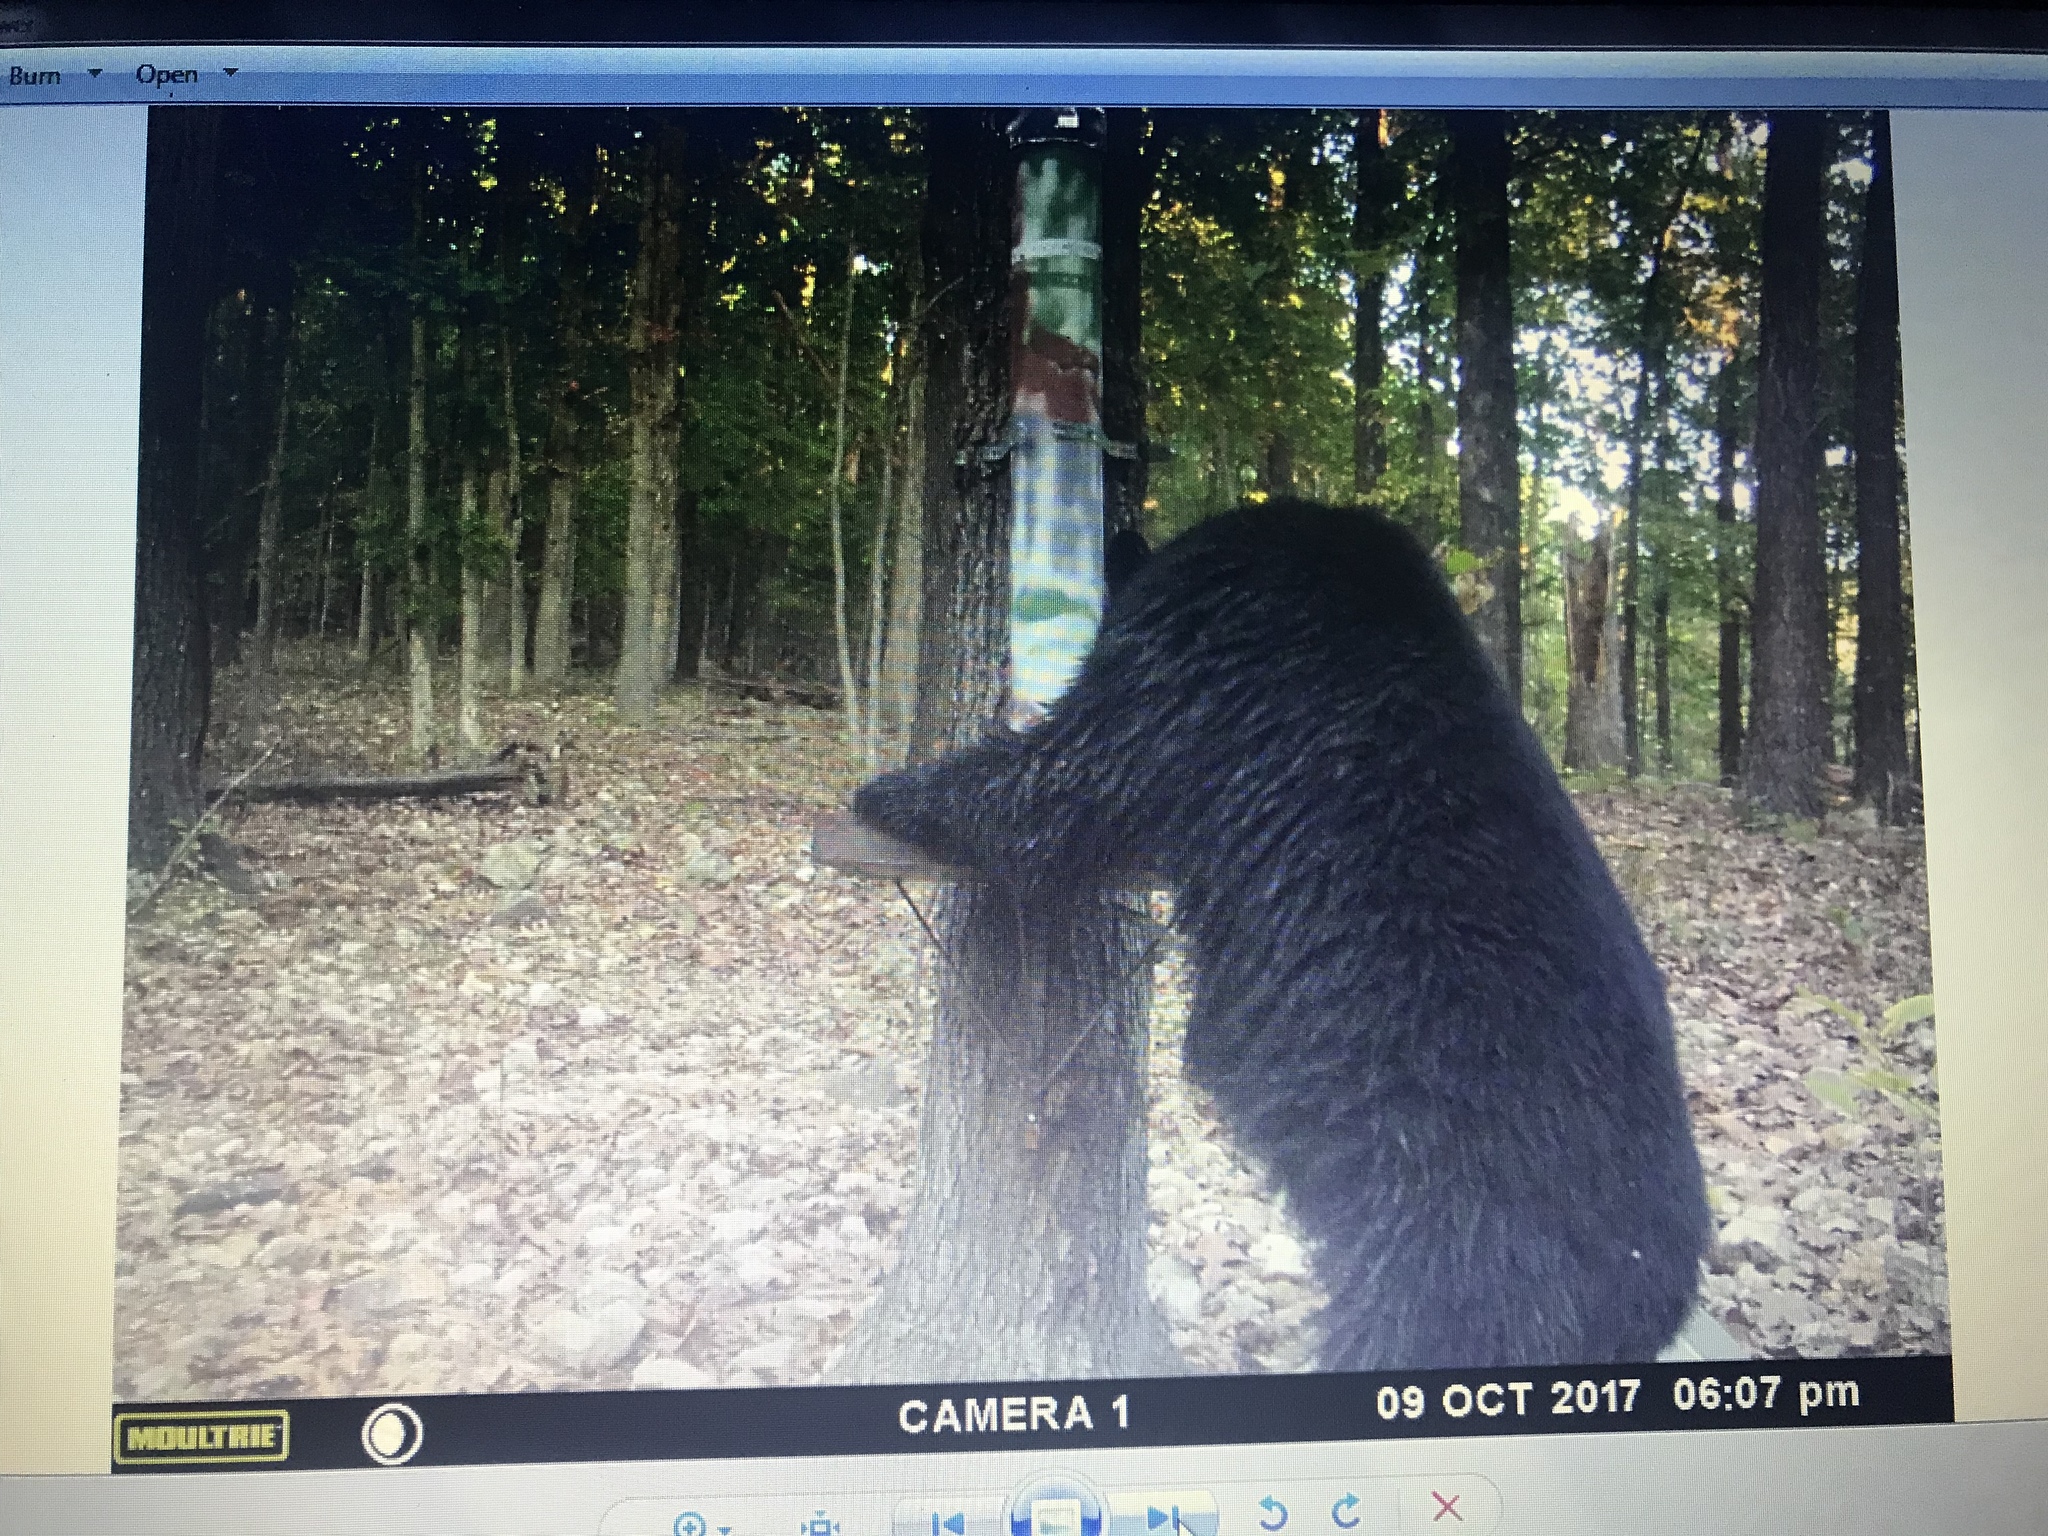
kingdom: Animalia
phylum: Chordata
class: Mammalia
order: Carnivora
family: Ursidae
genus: Ursus
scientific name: Ursus americanus
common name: American black bear
